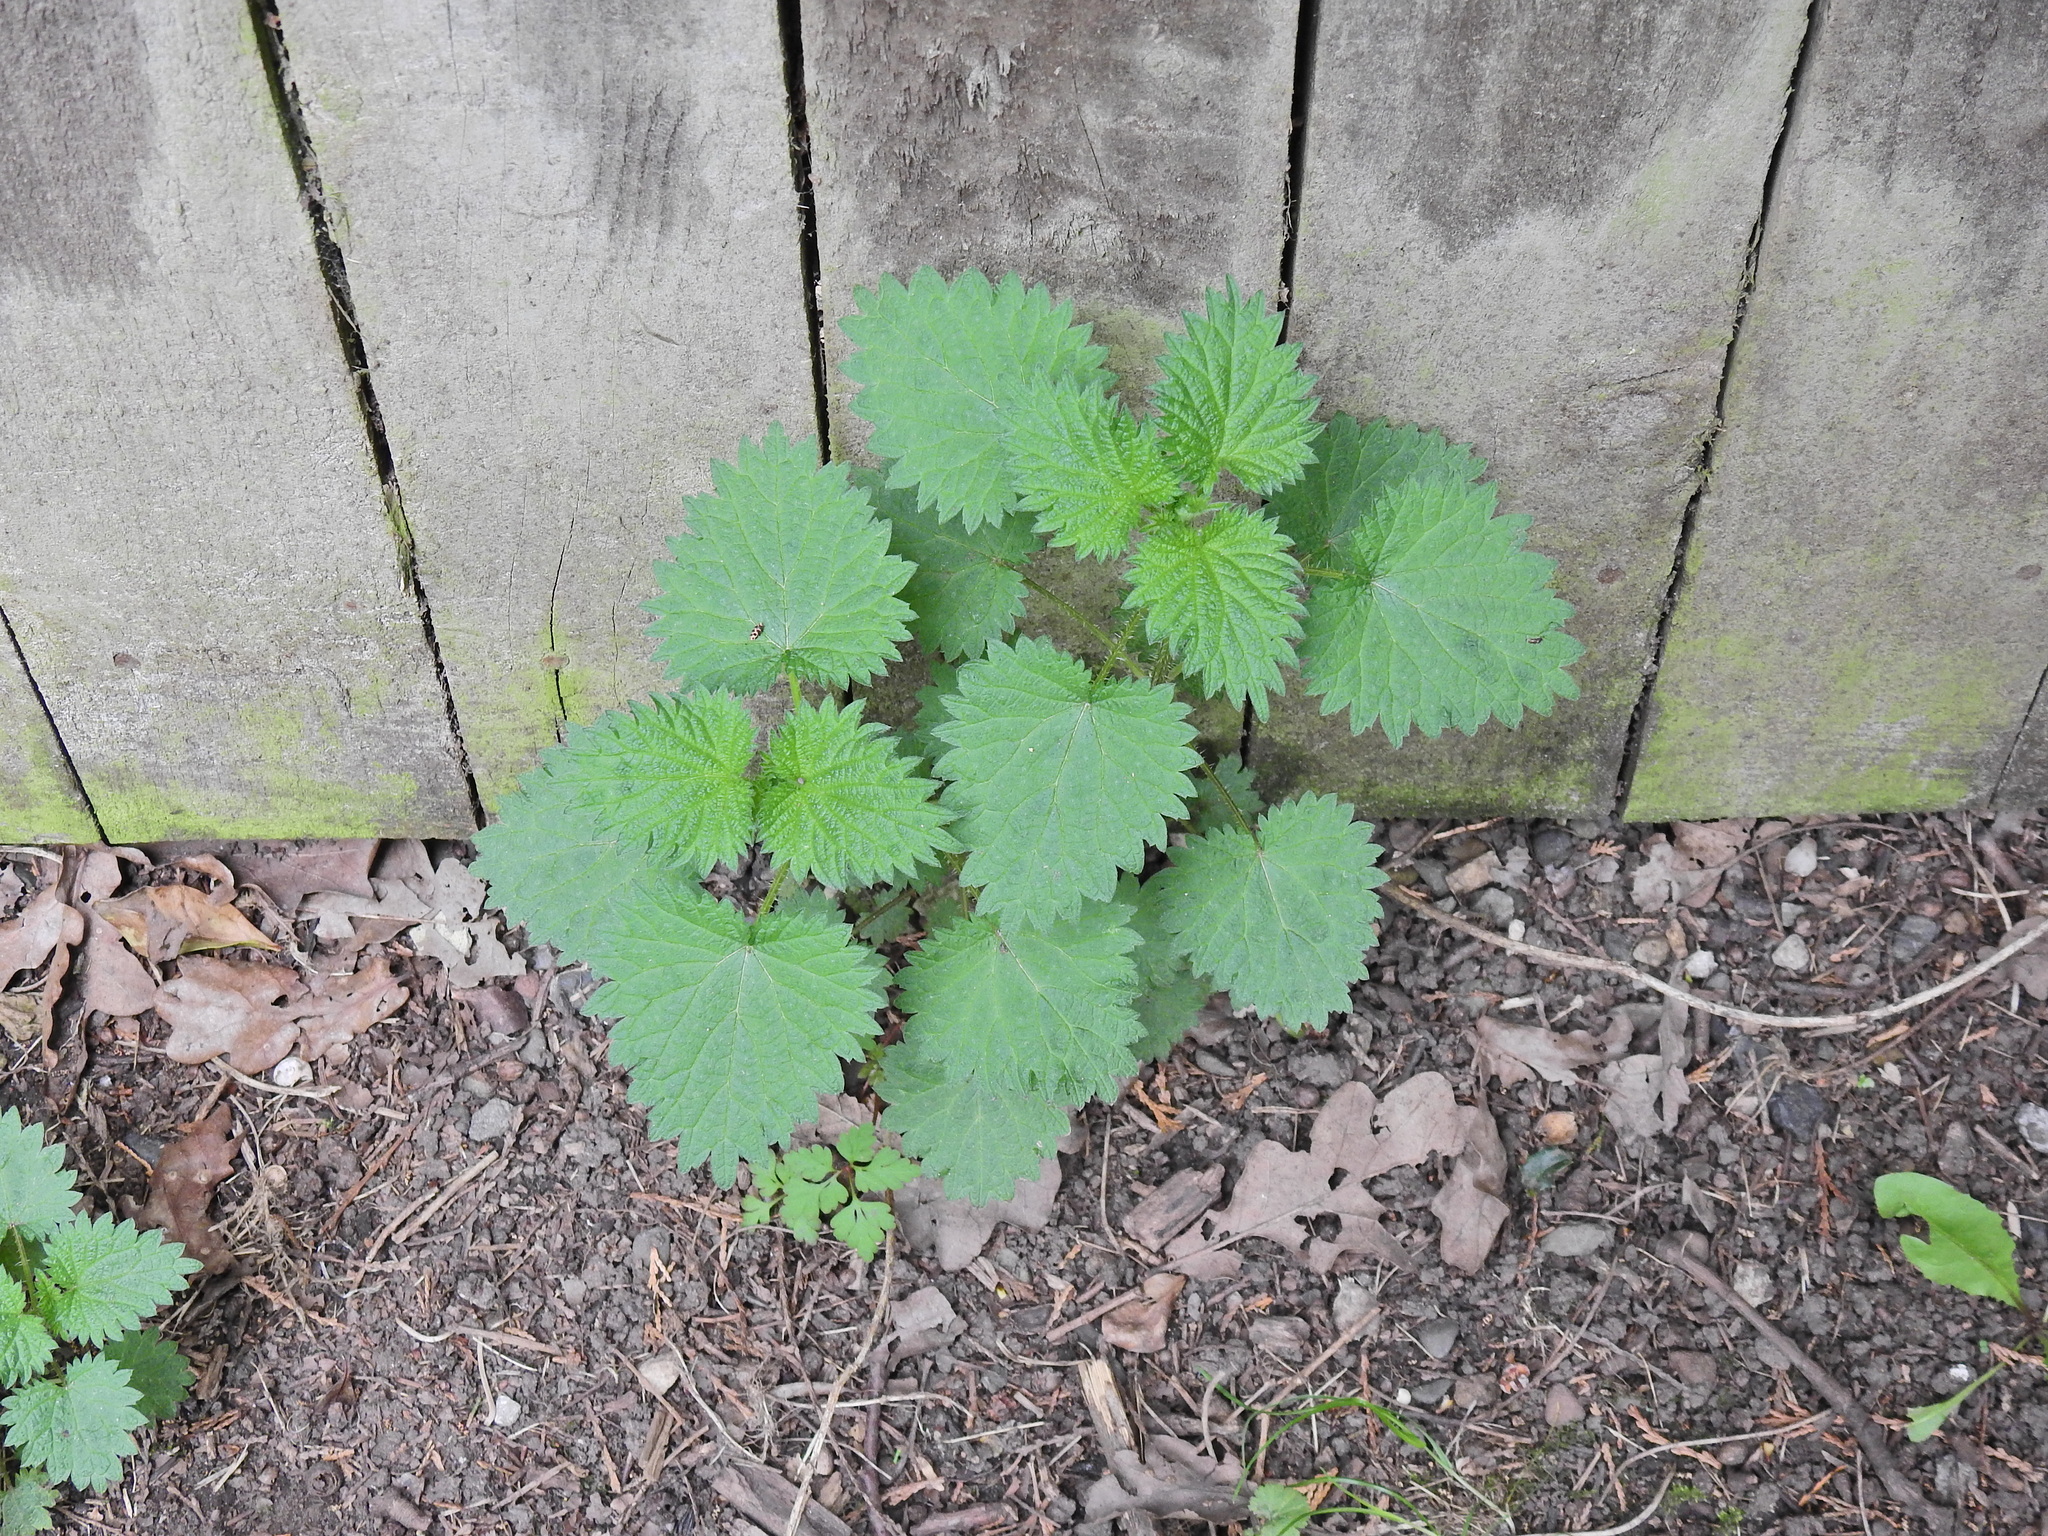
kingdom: Plantae
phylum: Tracheophyta
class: Magnoliopsida
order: Rosales
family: Urticaceae
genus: Urtica
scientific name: Urtica dioica
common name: Common nettle
